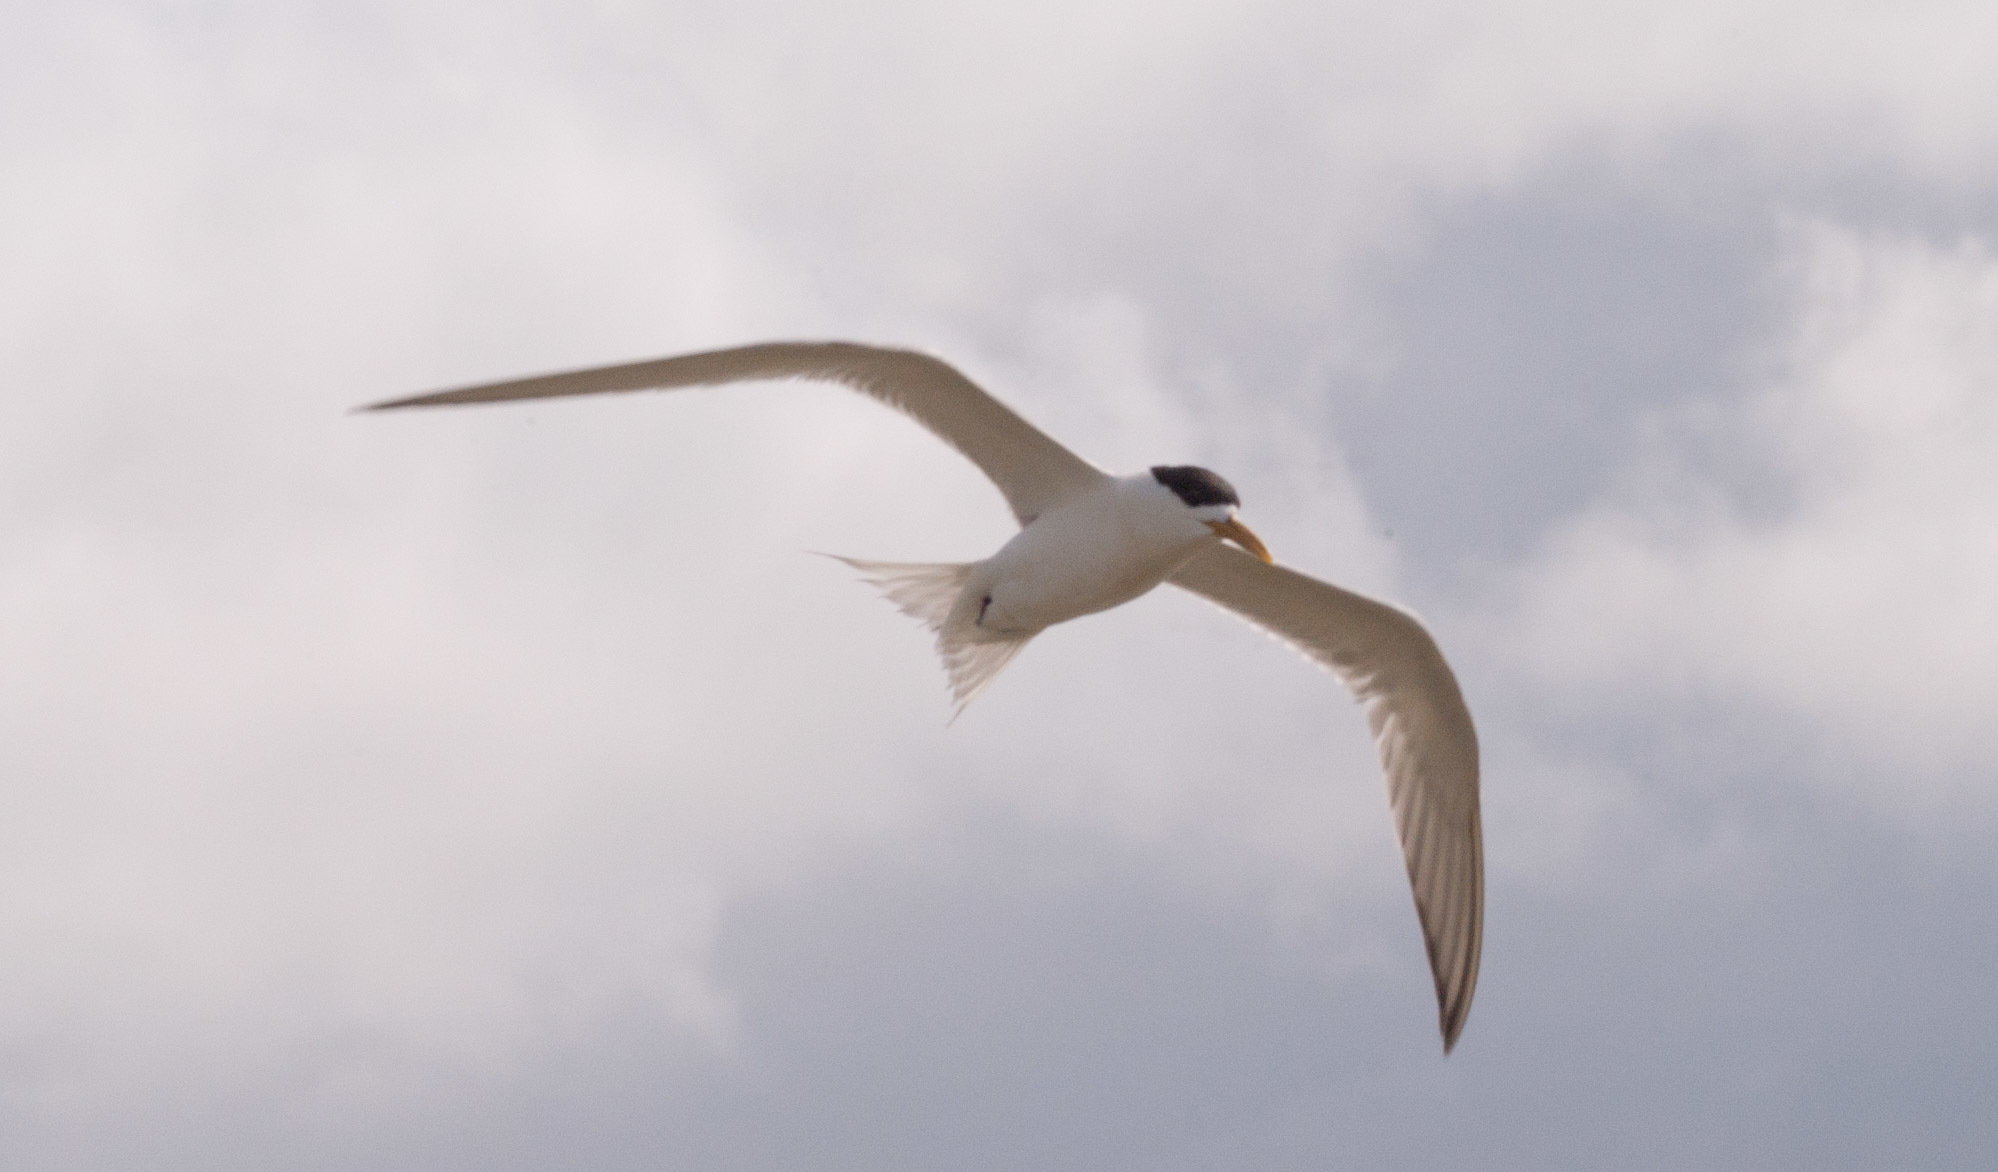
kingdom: Animalia
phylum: Chordata
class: Aves
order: Charadriiformes
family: Laridae
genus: Thalasseus
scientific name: Thalasseus bergii
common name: Greater crested tern
